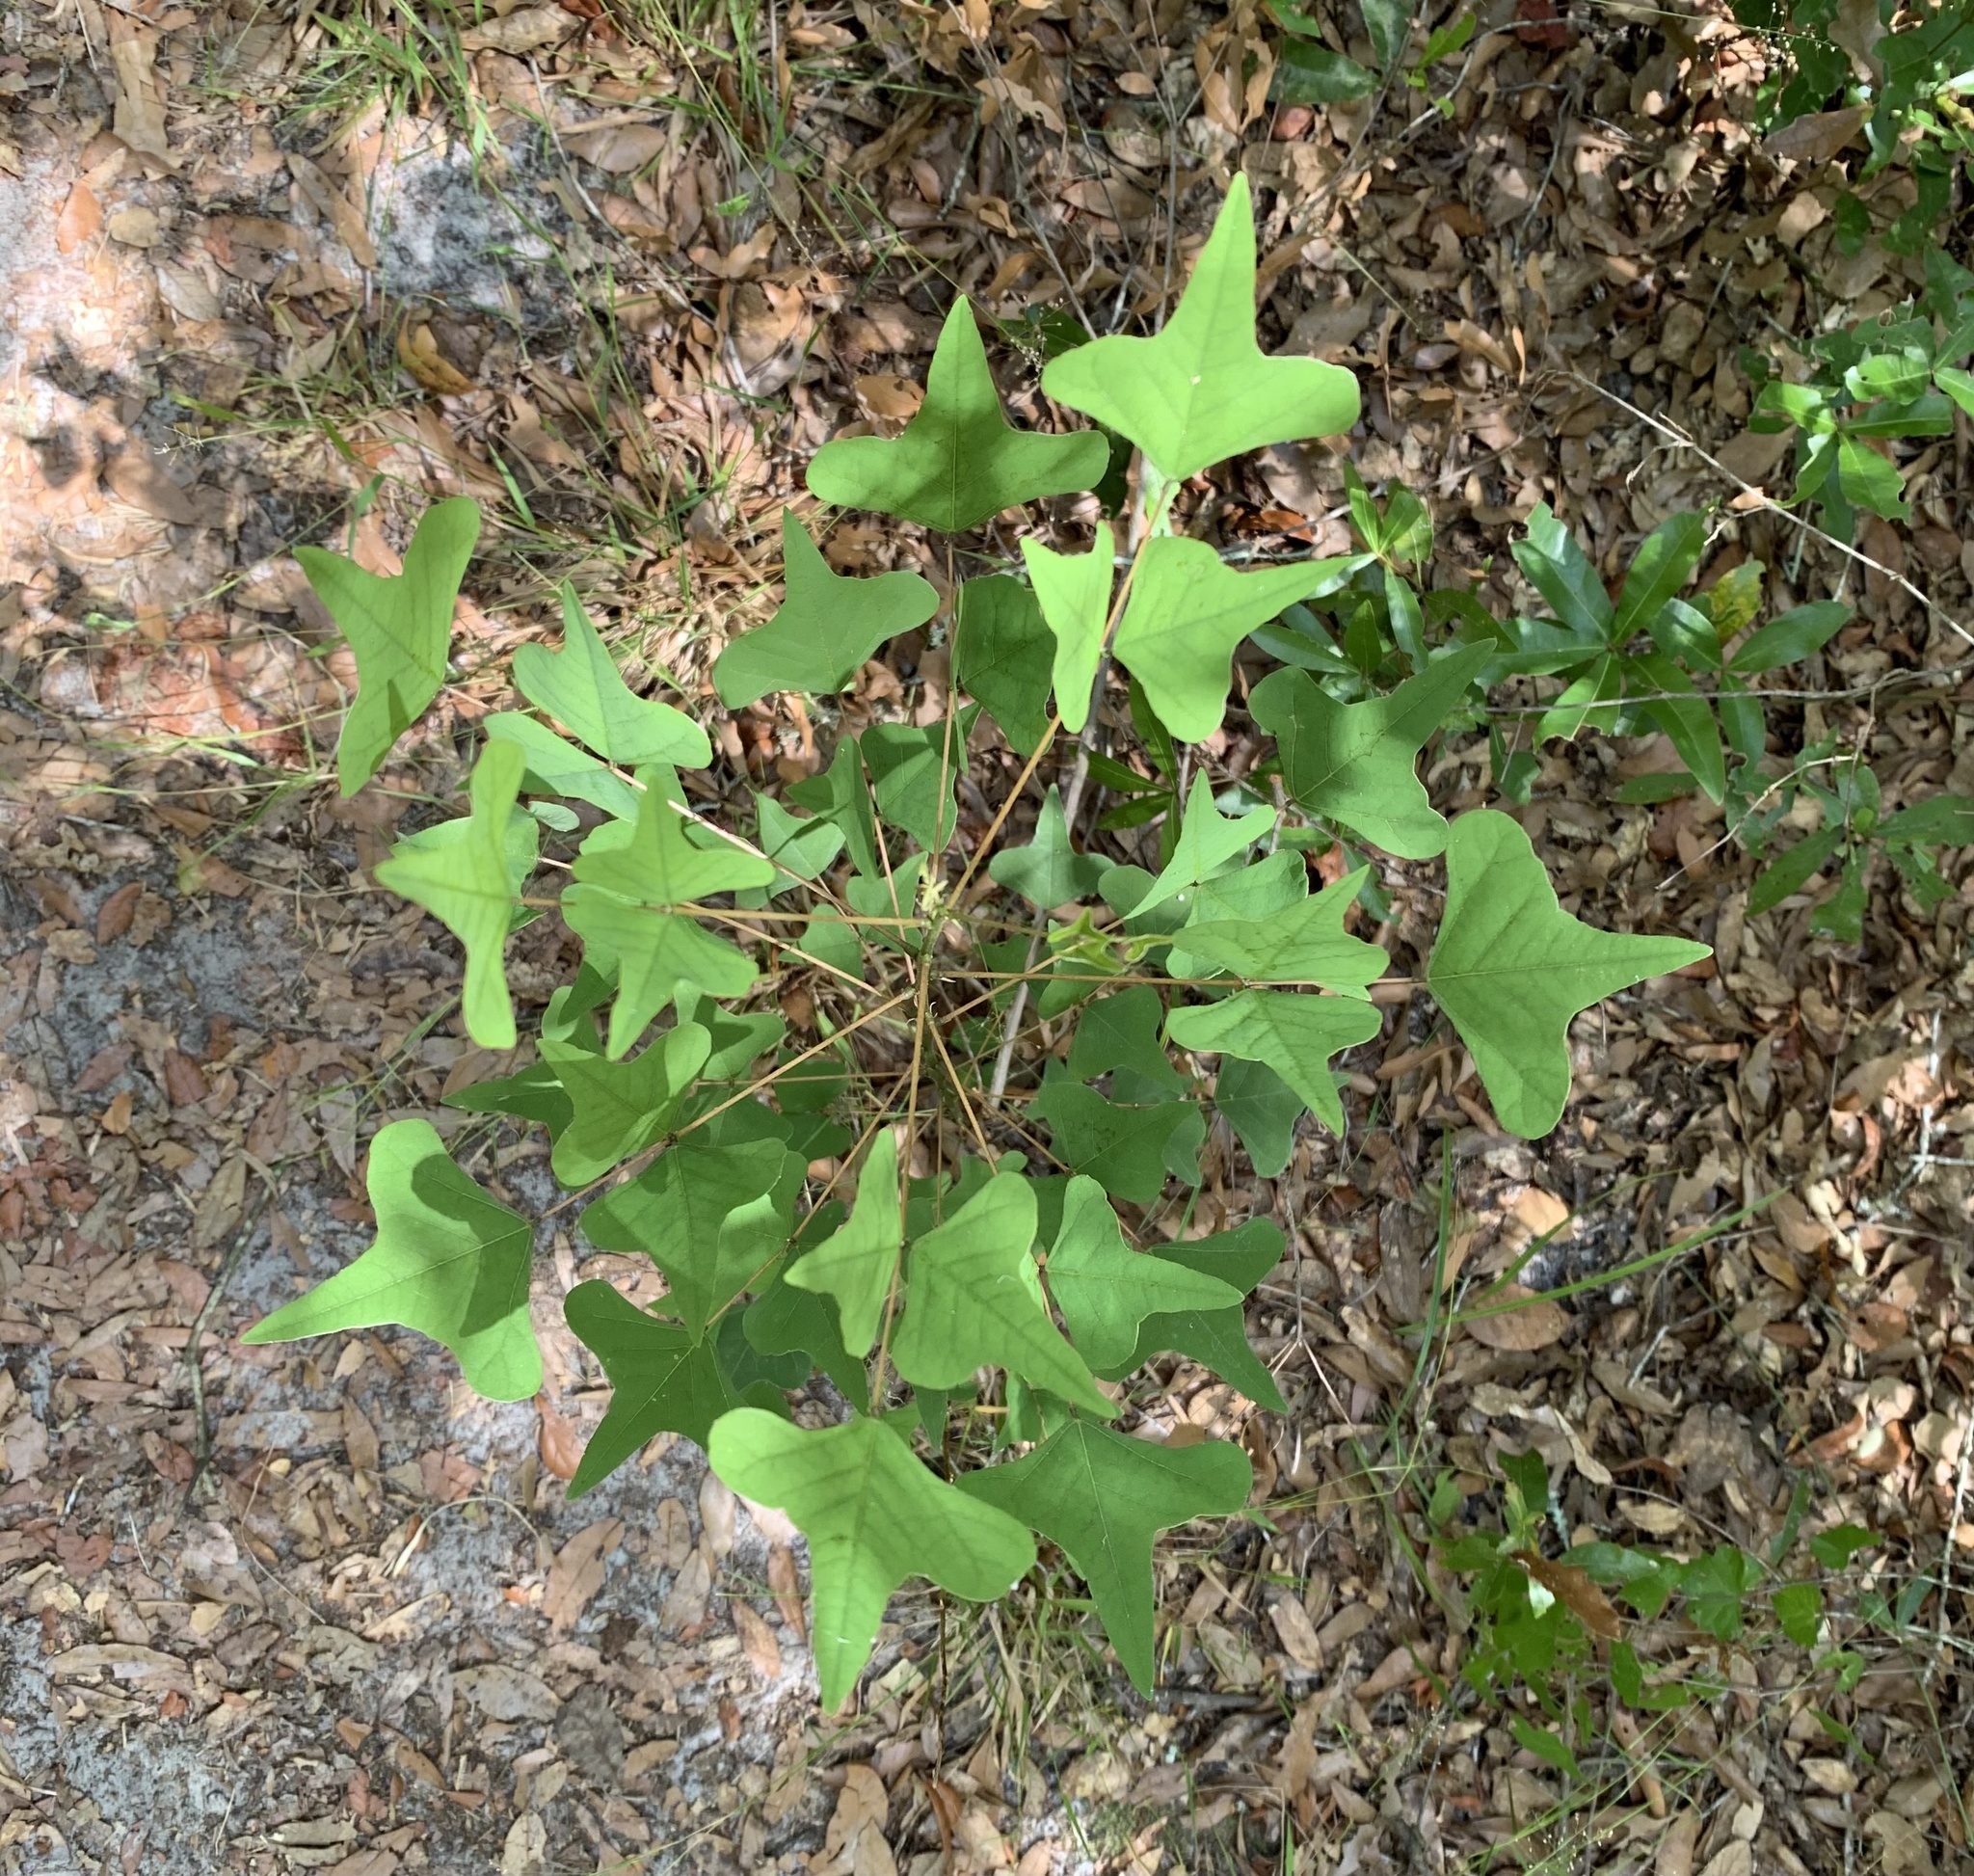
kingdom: Plantae
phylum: Tracheophyta
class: Magnoliopsida
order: Fabales
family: Fabaceae
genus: Erythrina
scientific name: Erythrina herbacea
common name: Coral-bean
